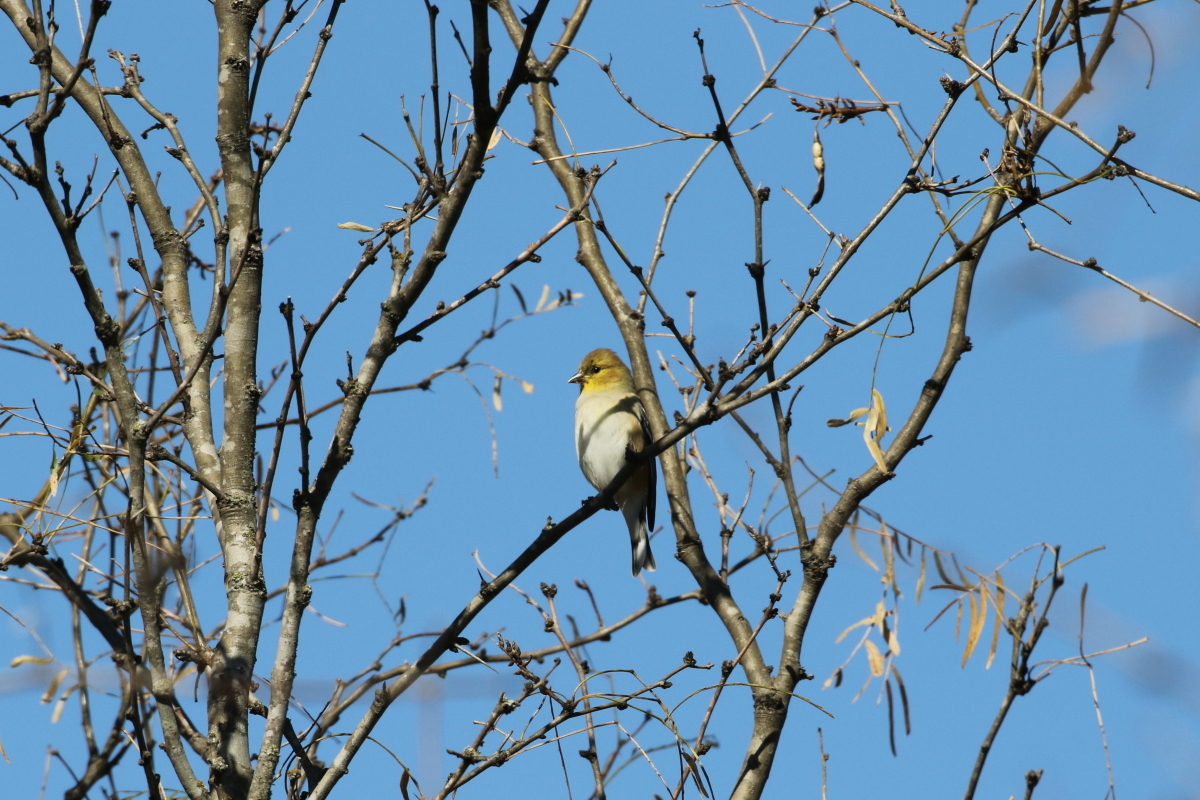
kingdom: Animalia
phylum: Chordata
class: Aves
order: Passeriformes
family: Fringillidae
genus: Spinus
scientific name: Spinus tristis
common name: American goldfinch
